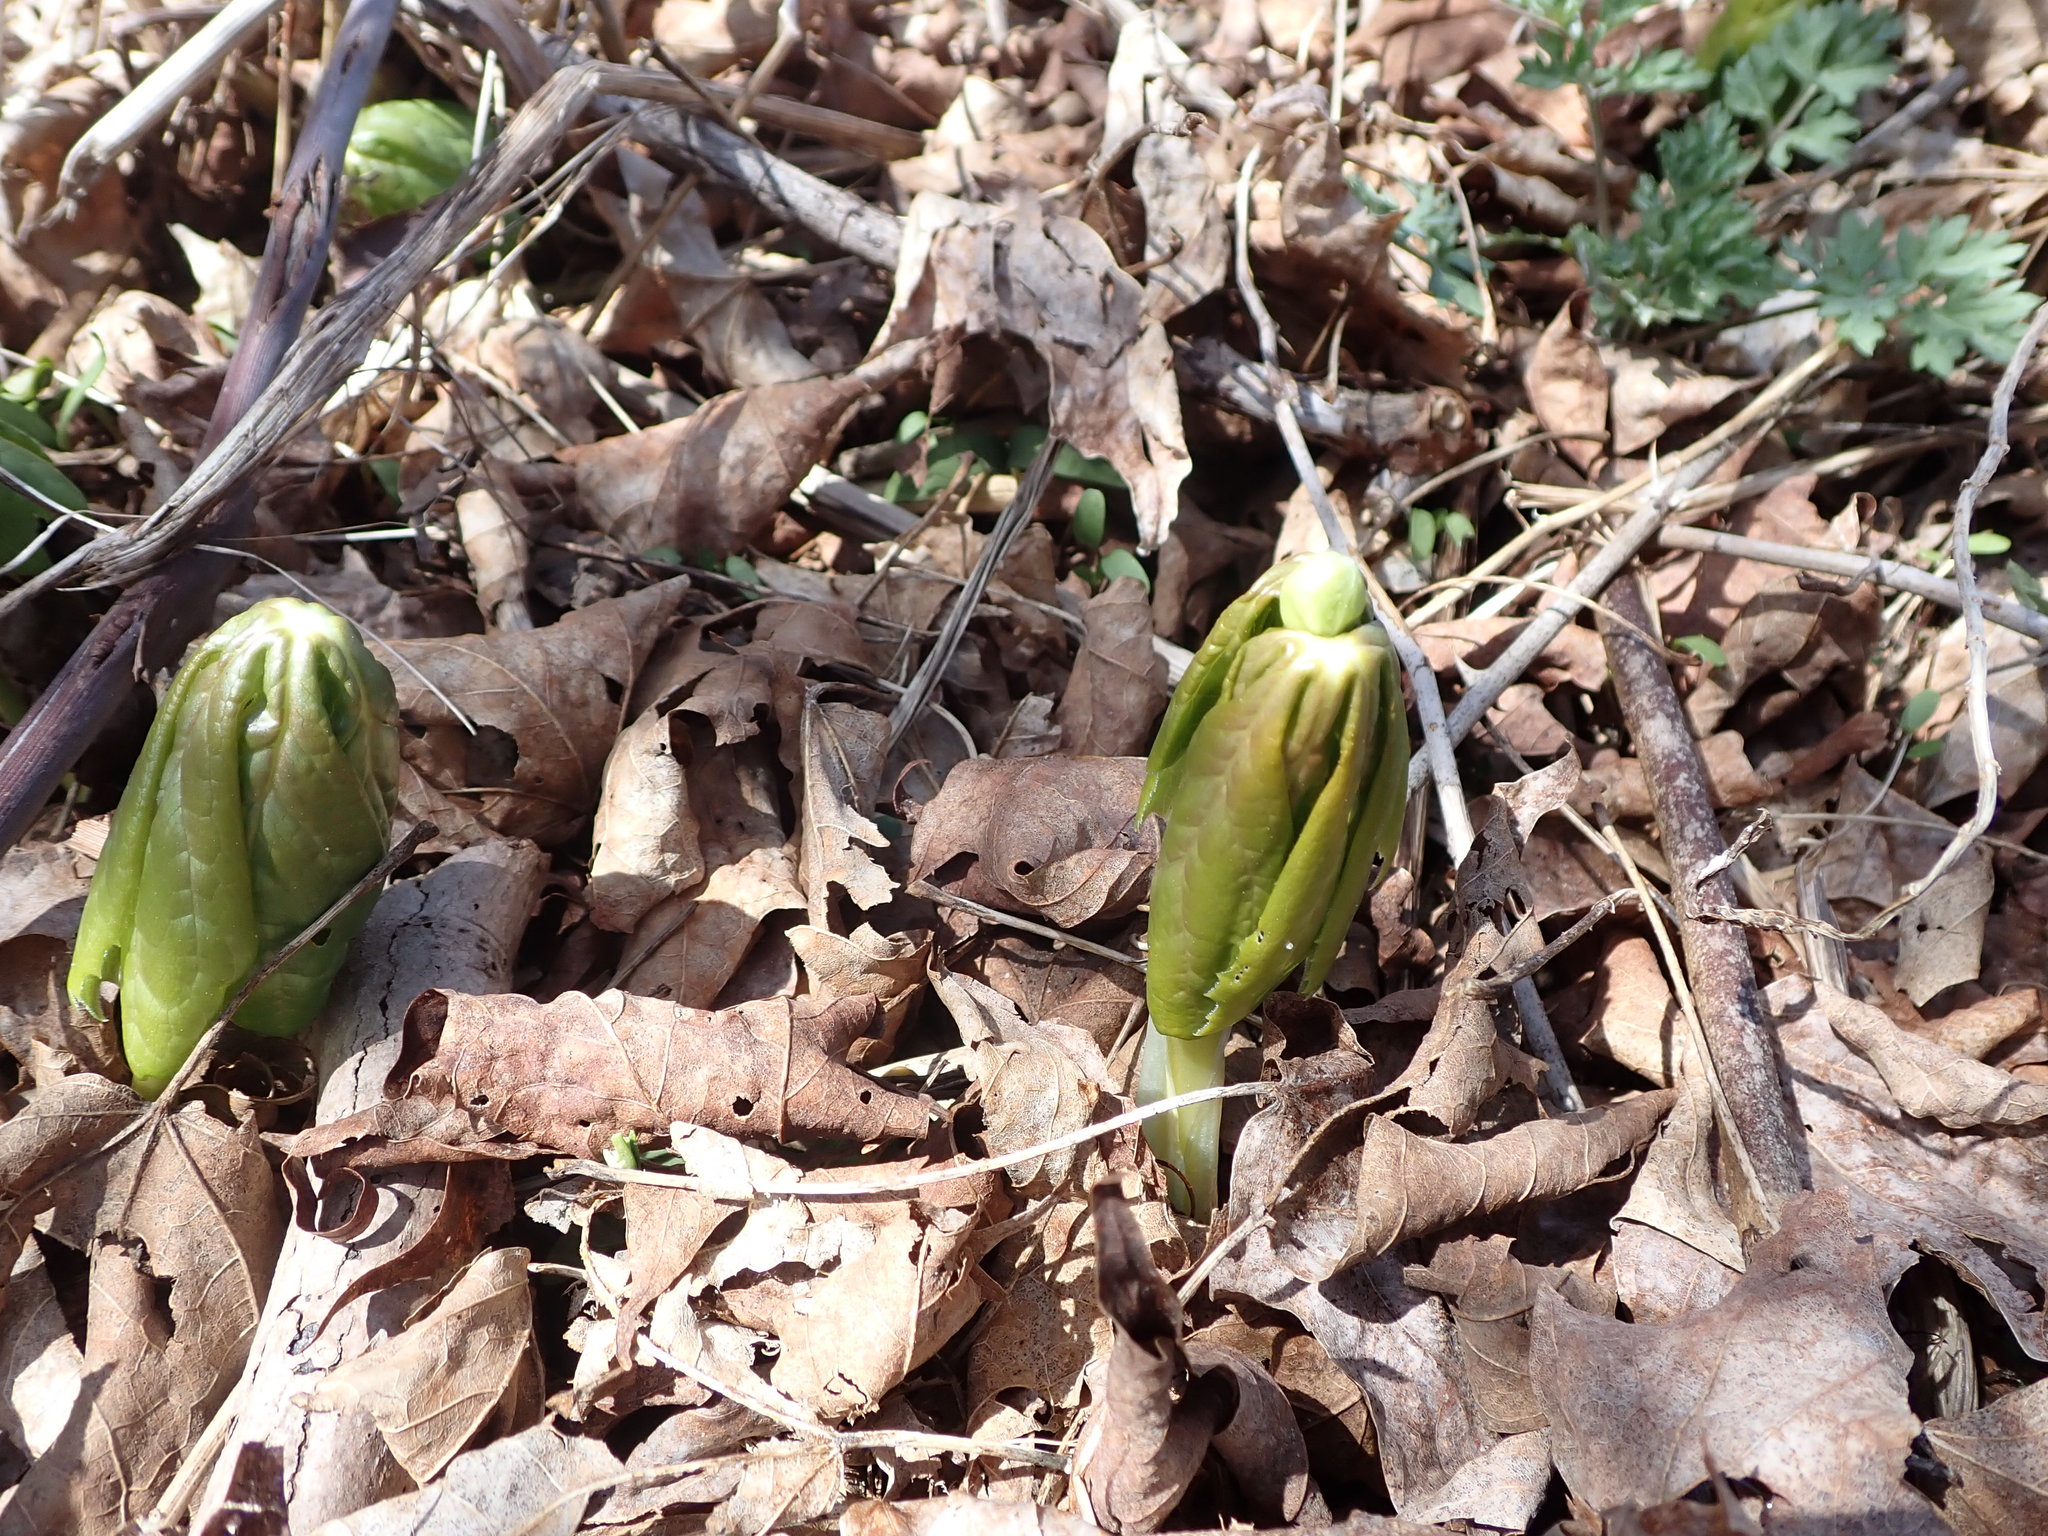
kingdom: Plantae
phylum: Tracheophyta
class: Magnoliopsida
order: Ranunculales
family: Berberidaceae
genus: Podophyllum
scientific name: Podophyllum peltatum
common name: Wild mandrake
